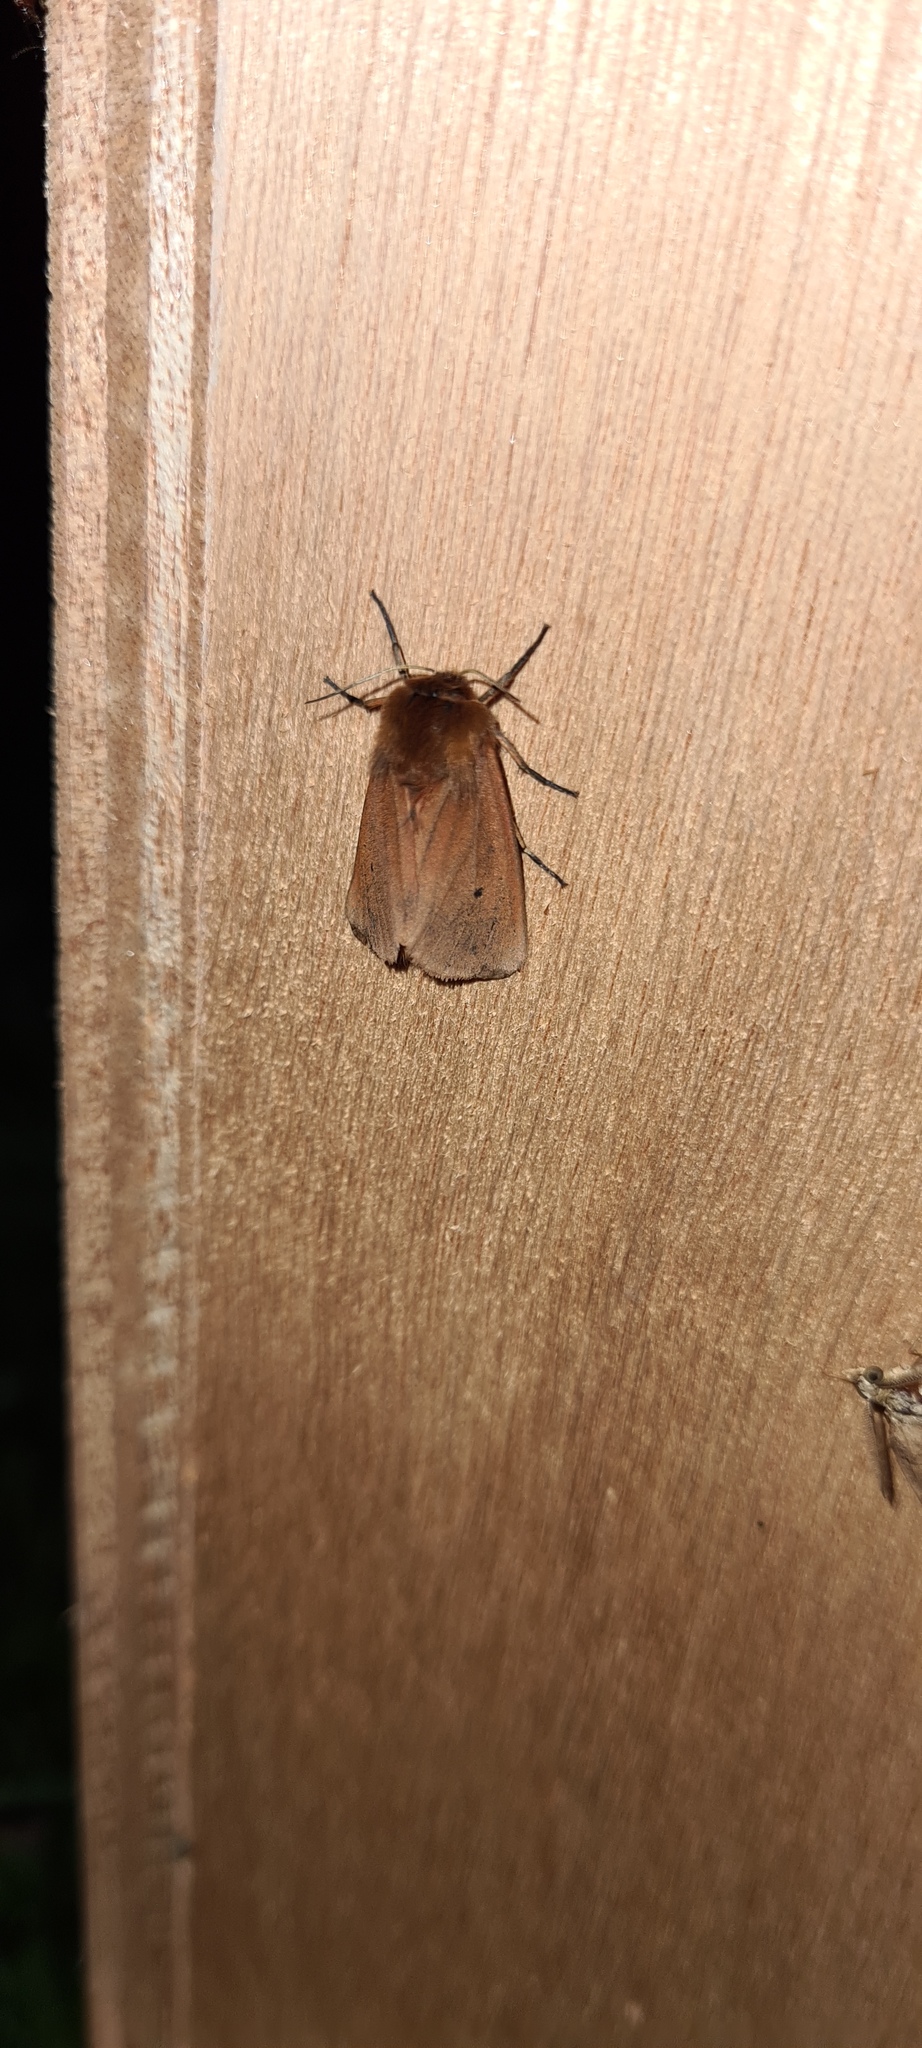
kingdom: Animalia
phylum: Arthropoda
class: Insecta
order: Lepidoptera
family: Erebidae
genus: Phragmatobia
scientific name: Phragmatobia fuliginosa
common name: Ruby tiger
